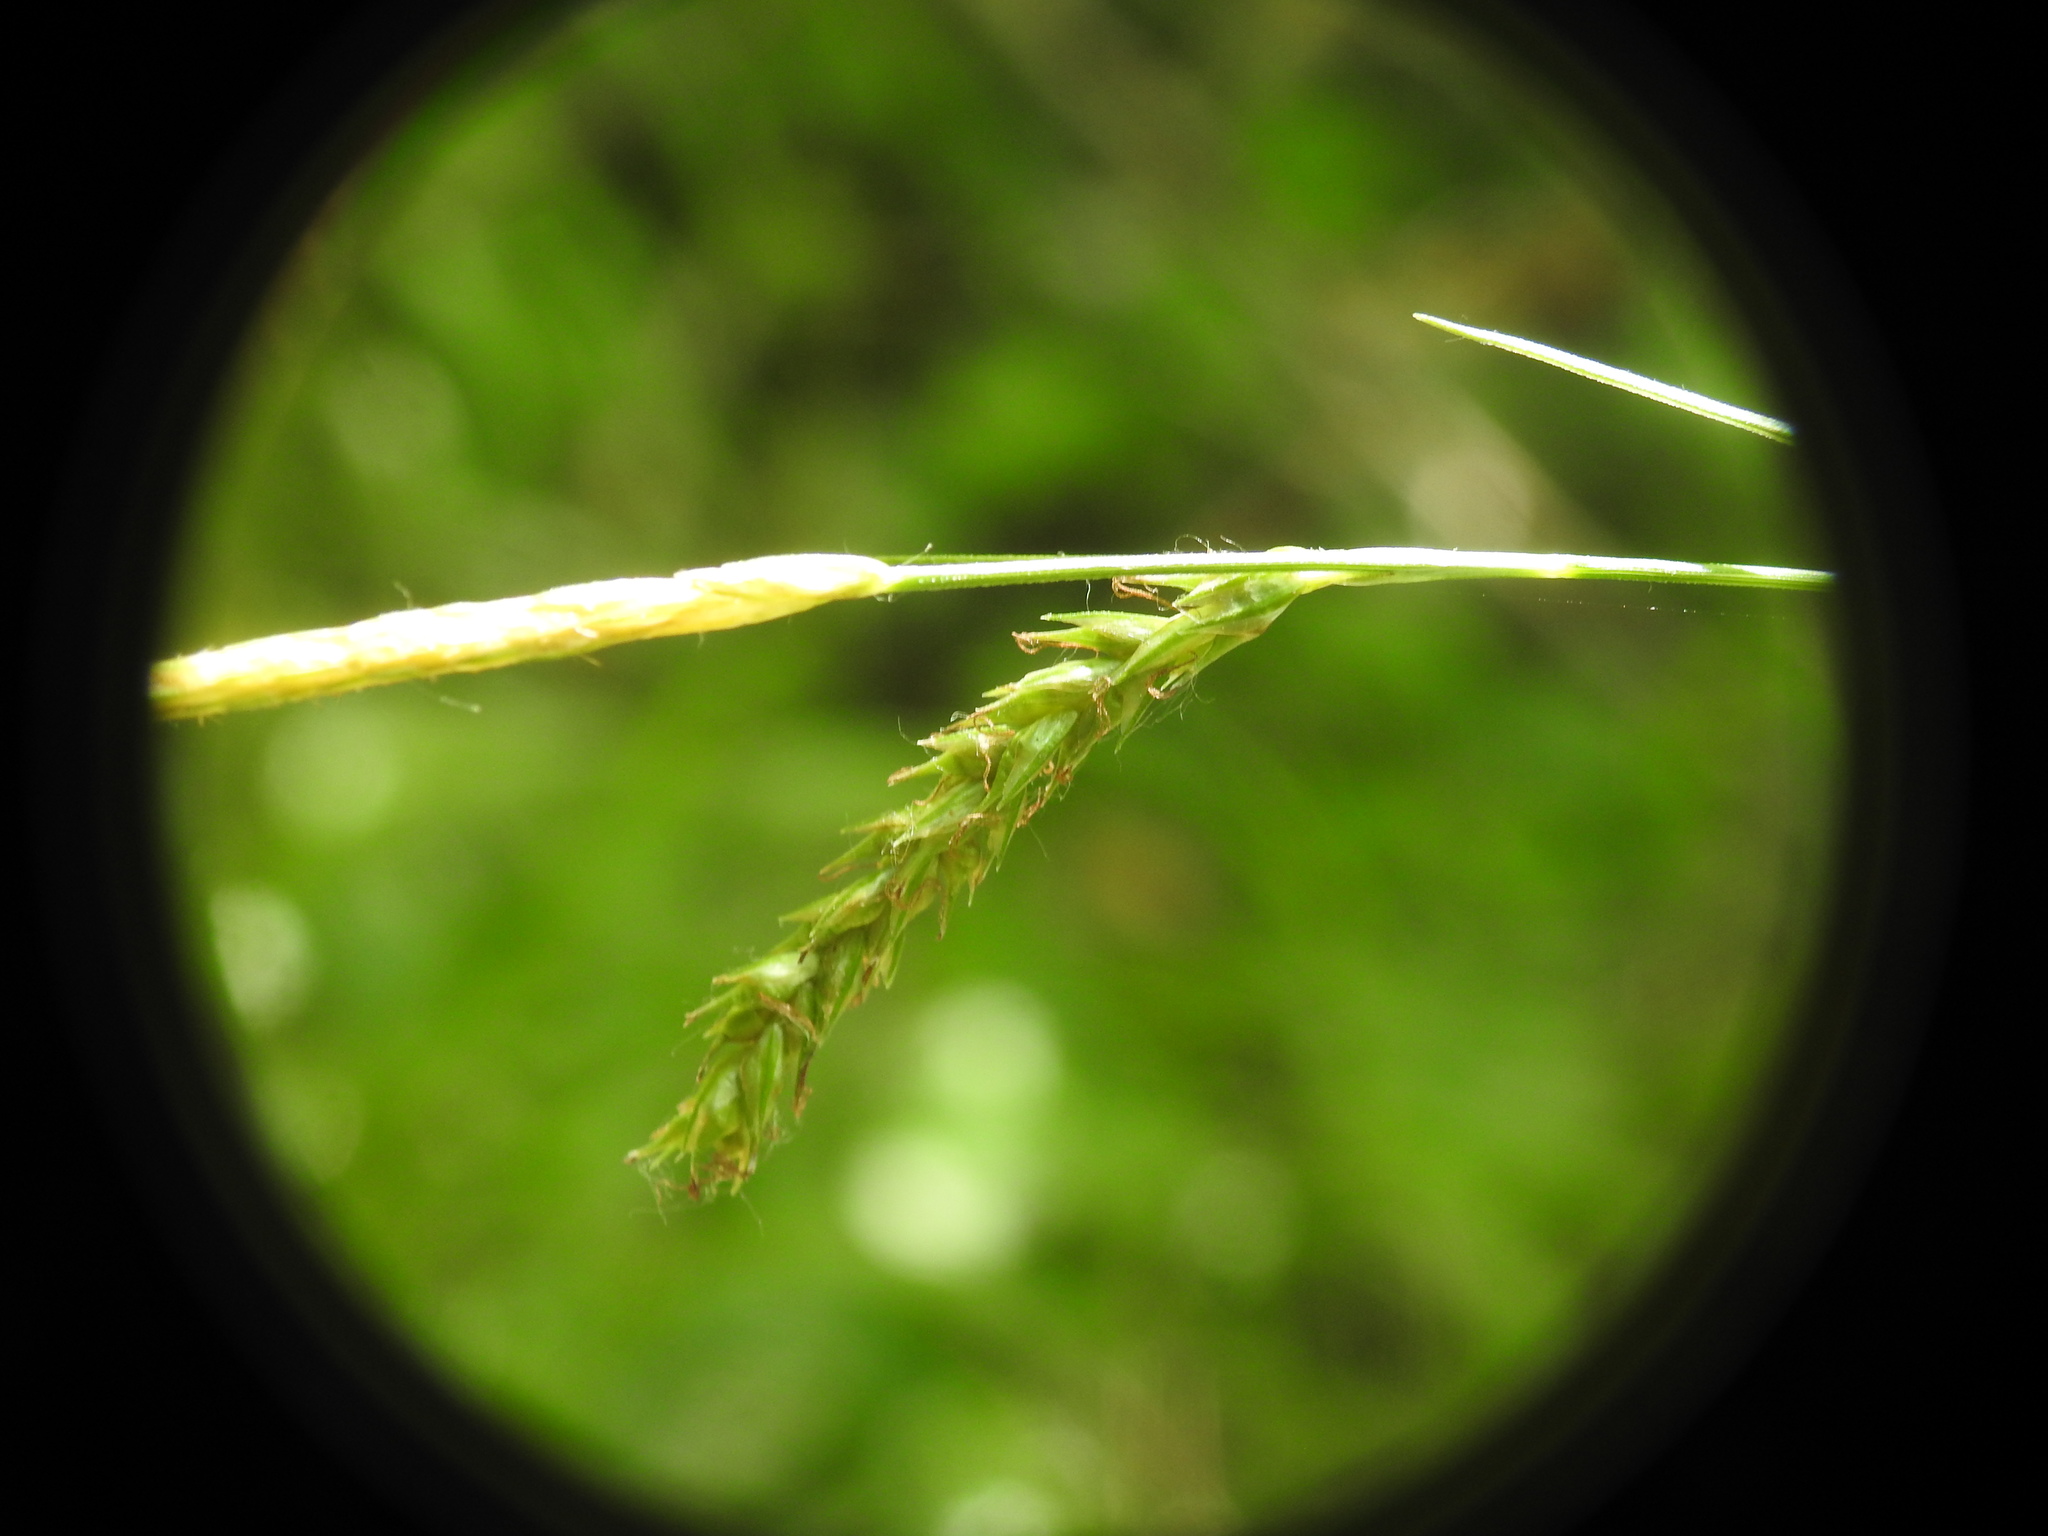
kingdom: Plantae
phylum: Tracheophyta
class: Liliopsida
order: Poales
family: Cyperaceae
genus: Carex
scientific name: Carex sylvatica
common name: Wood-sedge
